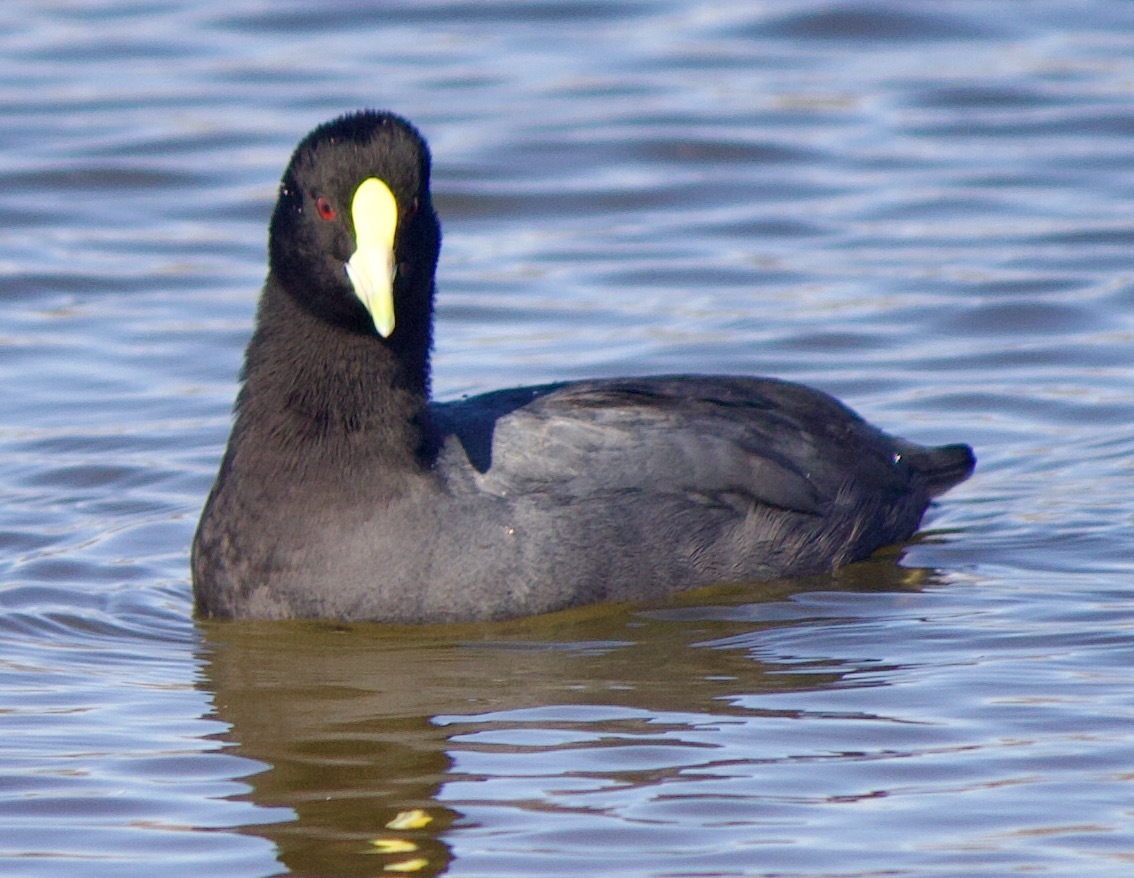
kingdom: Animalia
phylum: Chordata
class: Aves
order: Gruiformes
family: Rallidae
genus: Fulica
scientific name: Fulica leucoptera
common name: White-winged coot
